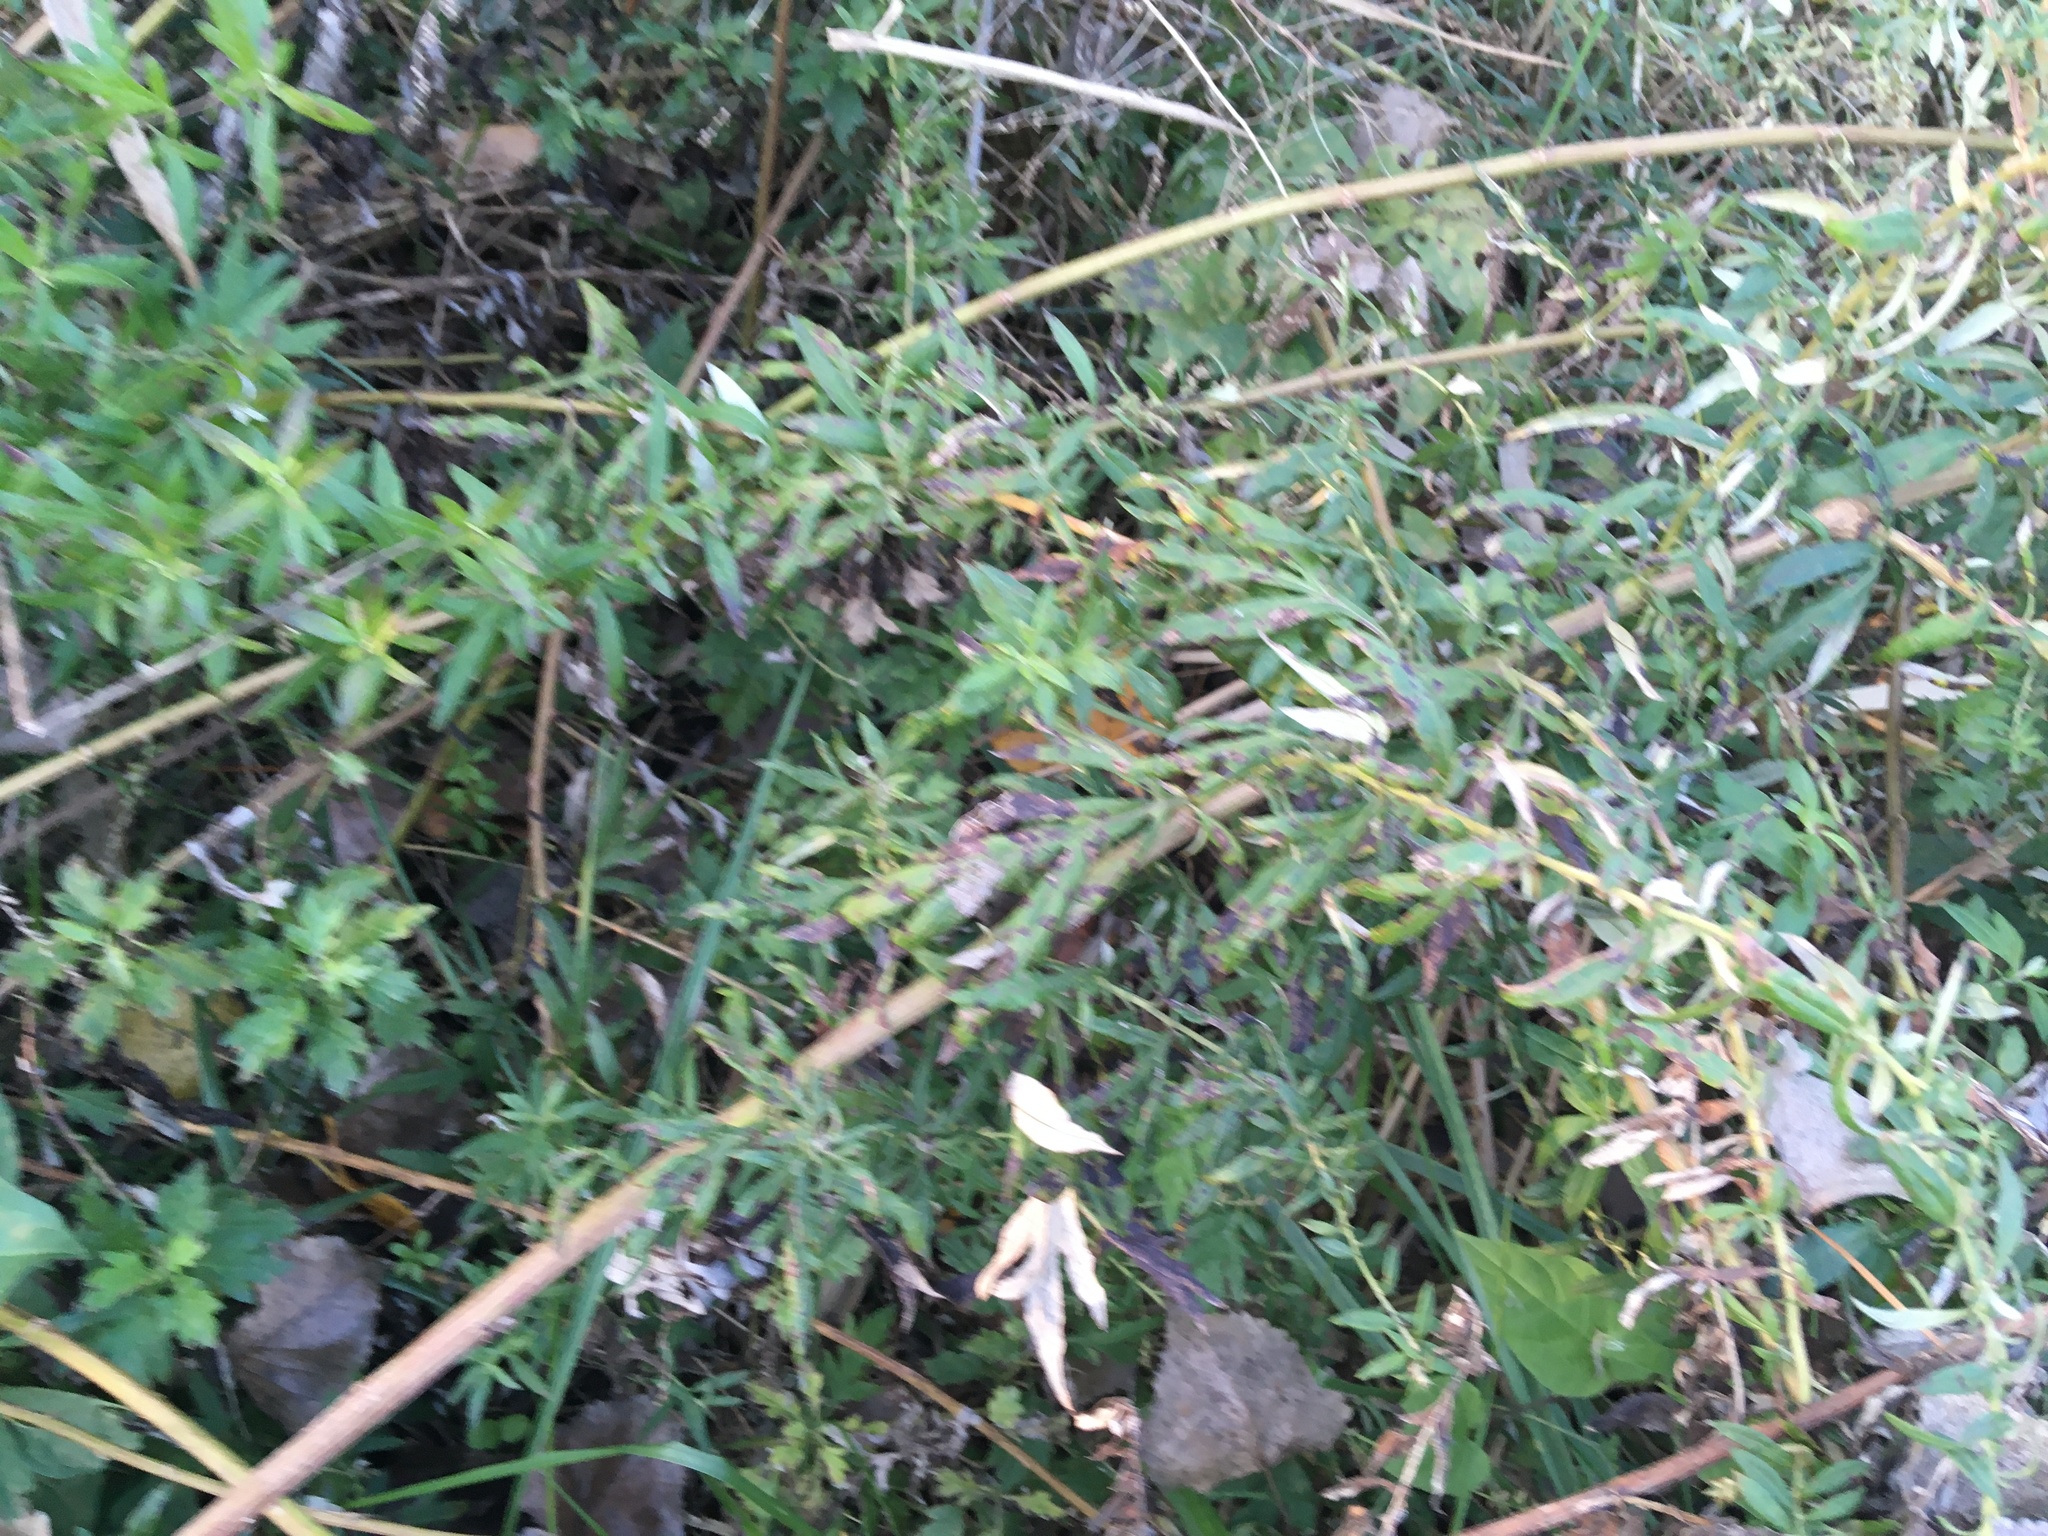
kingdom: Plantae
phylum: Tracheophyta
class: Magnoliopsida
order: Asterales
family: Asteraceae
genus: Artemisia
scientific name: Artemisia vulgaris
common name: Mugwort
